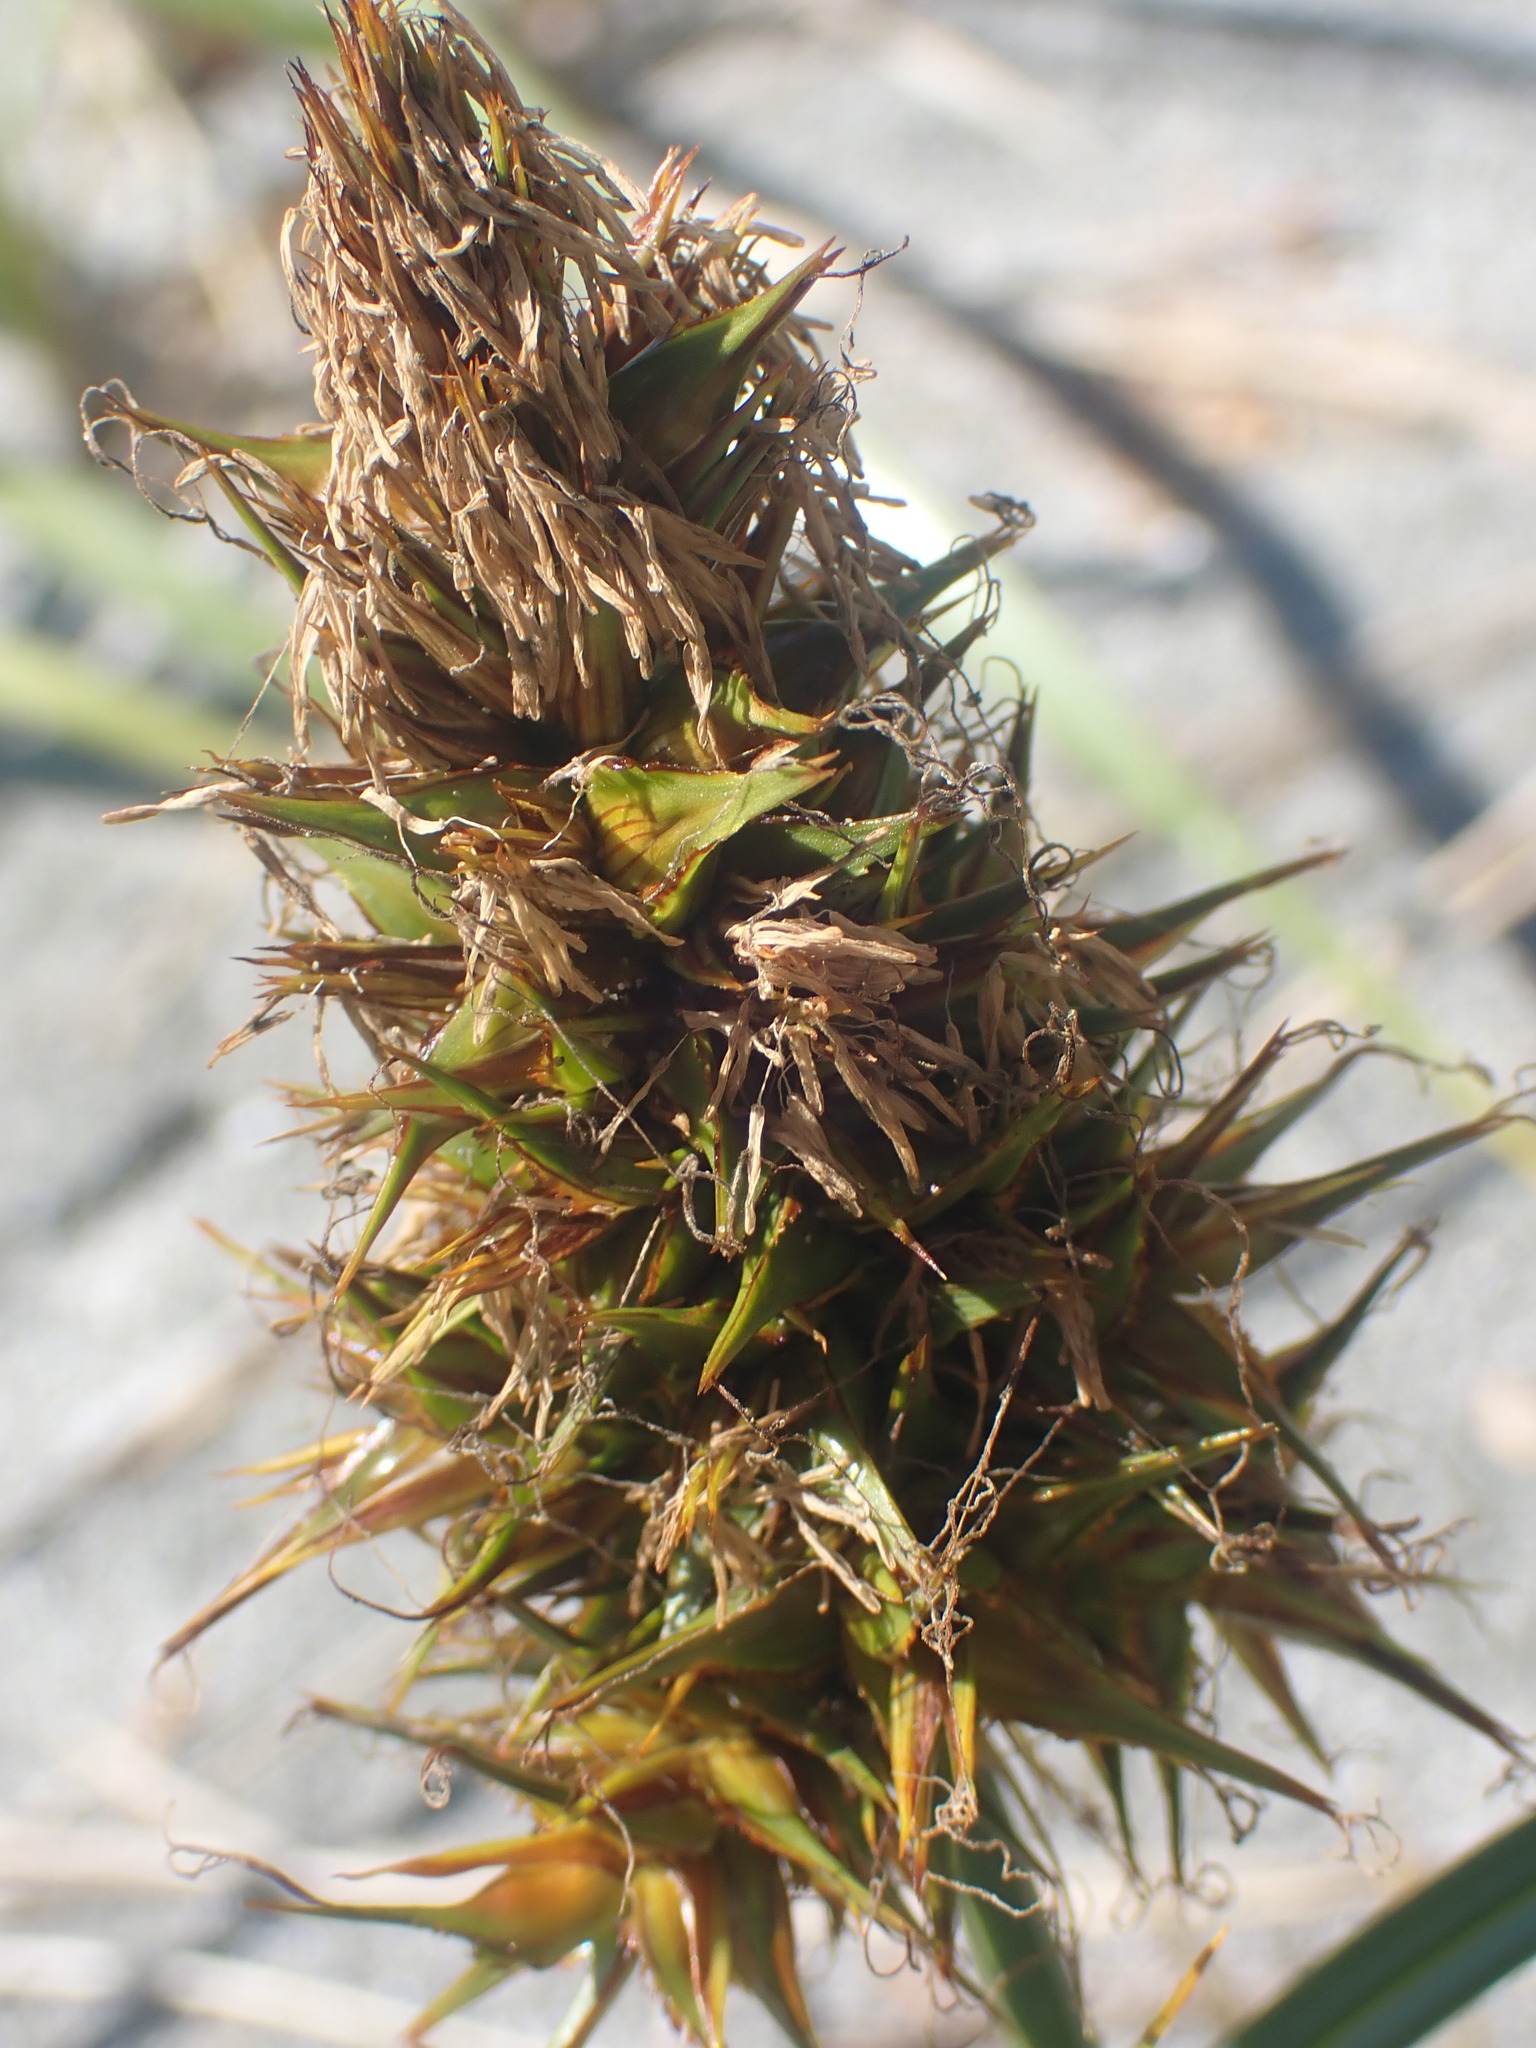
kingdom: Plantae
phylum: Tracheophyta
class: Liliopsida
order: Poales
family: Cyperaceae
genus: Carex
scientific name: Carex macrocephala
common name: Large-head sedge
